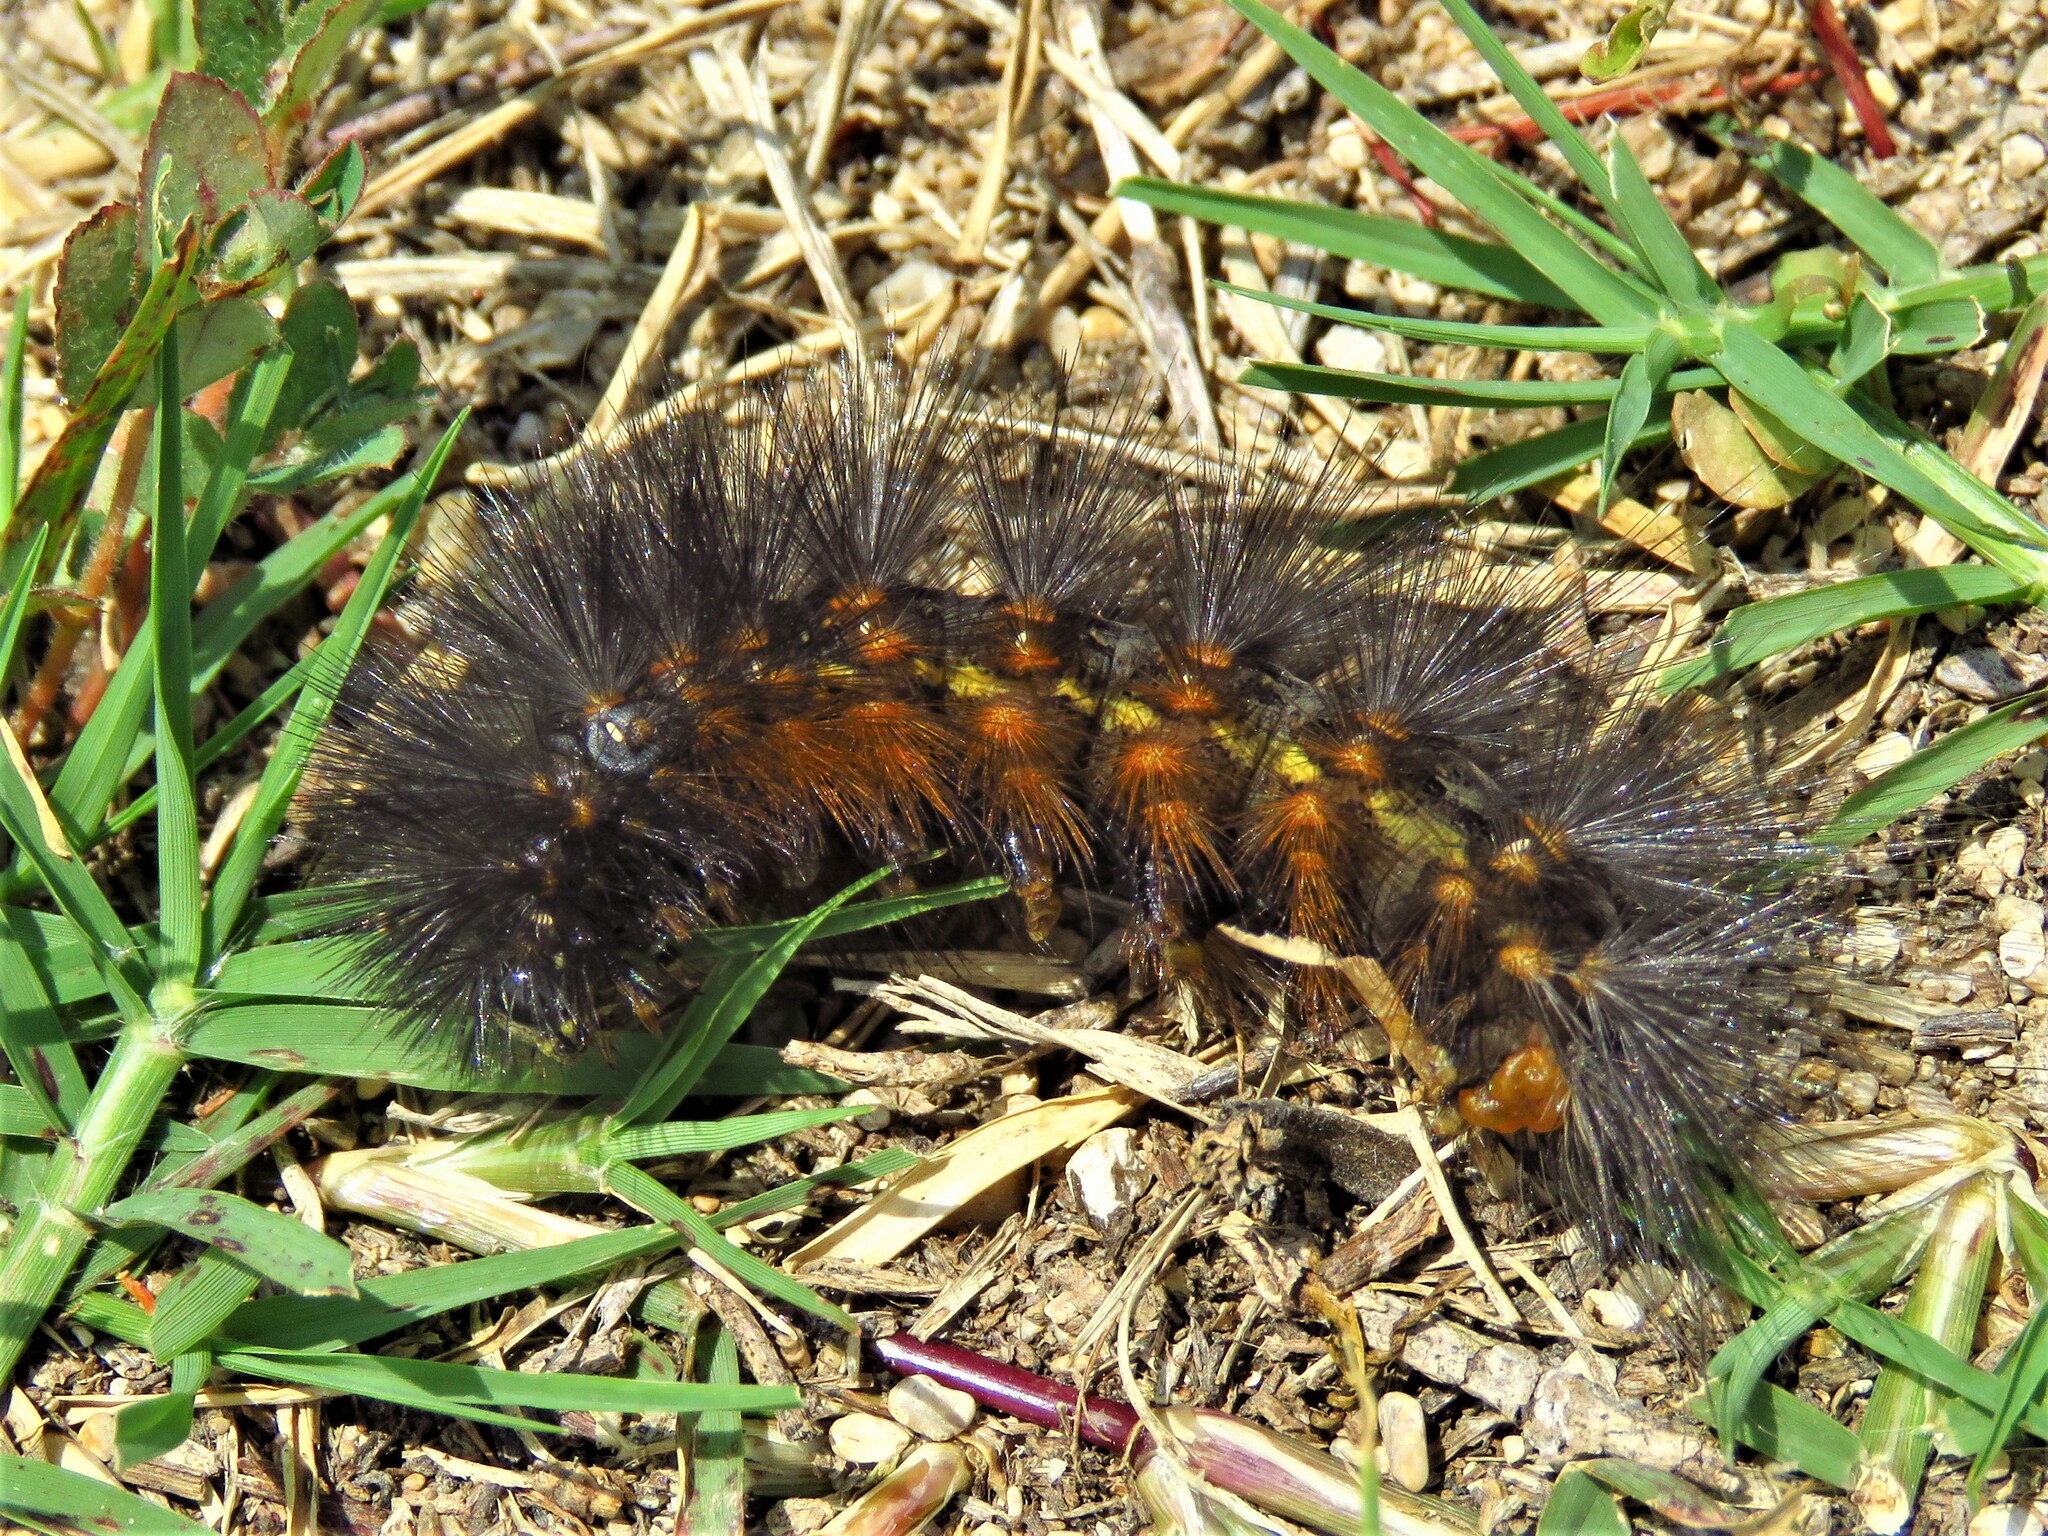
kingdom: Animalia
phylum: Arthropoda
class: Insecta
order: Lepidoptera
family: Erebidae
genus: Estigmene
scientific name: Estigmene acrea
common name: Salt marsh moth
